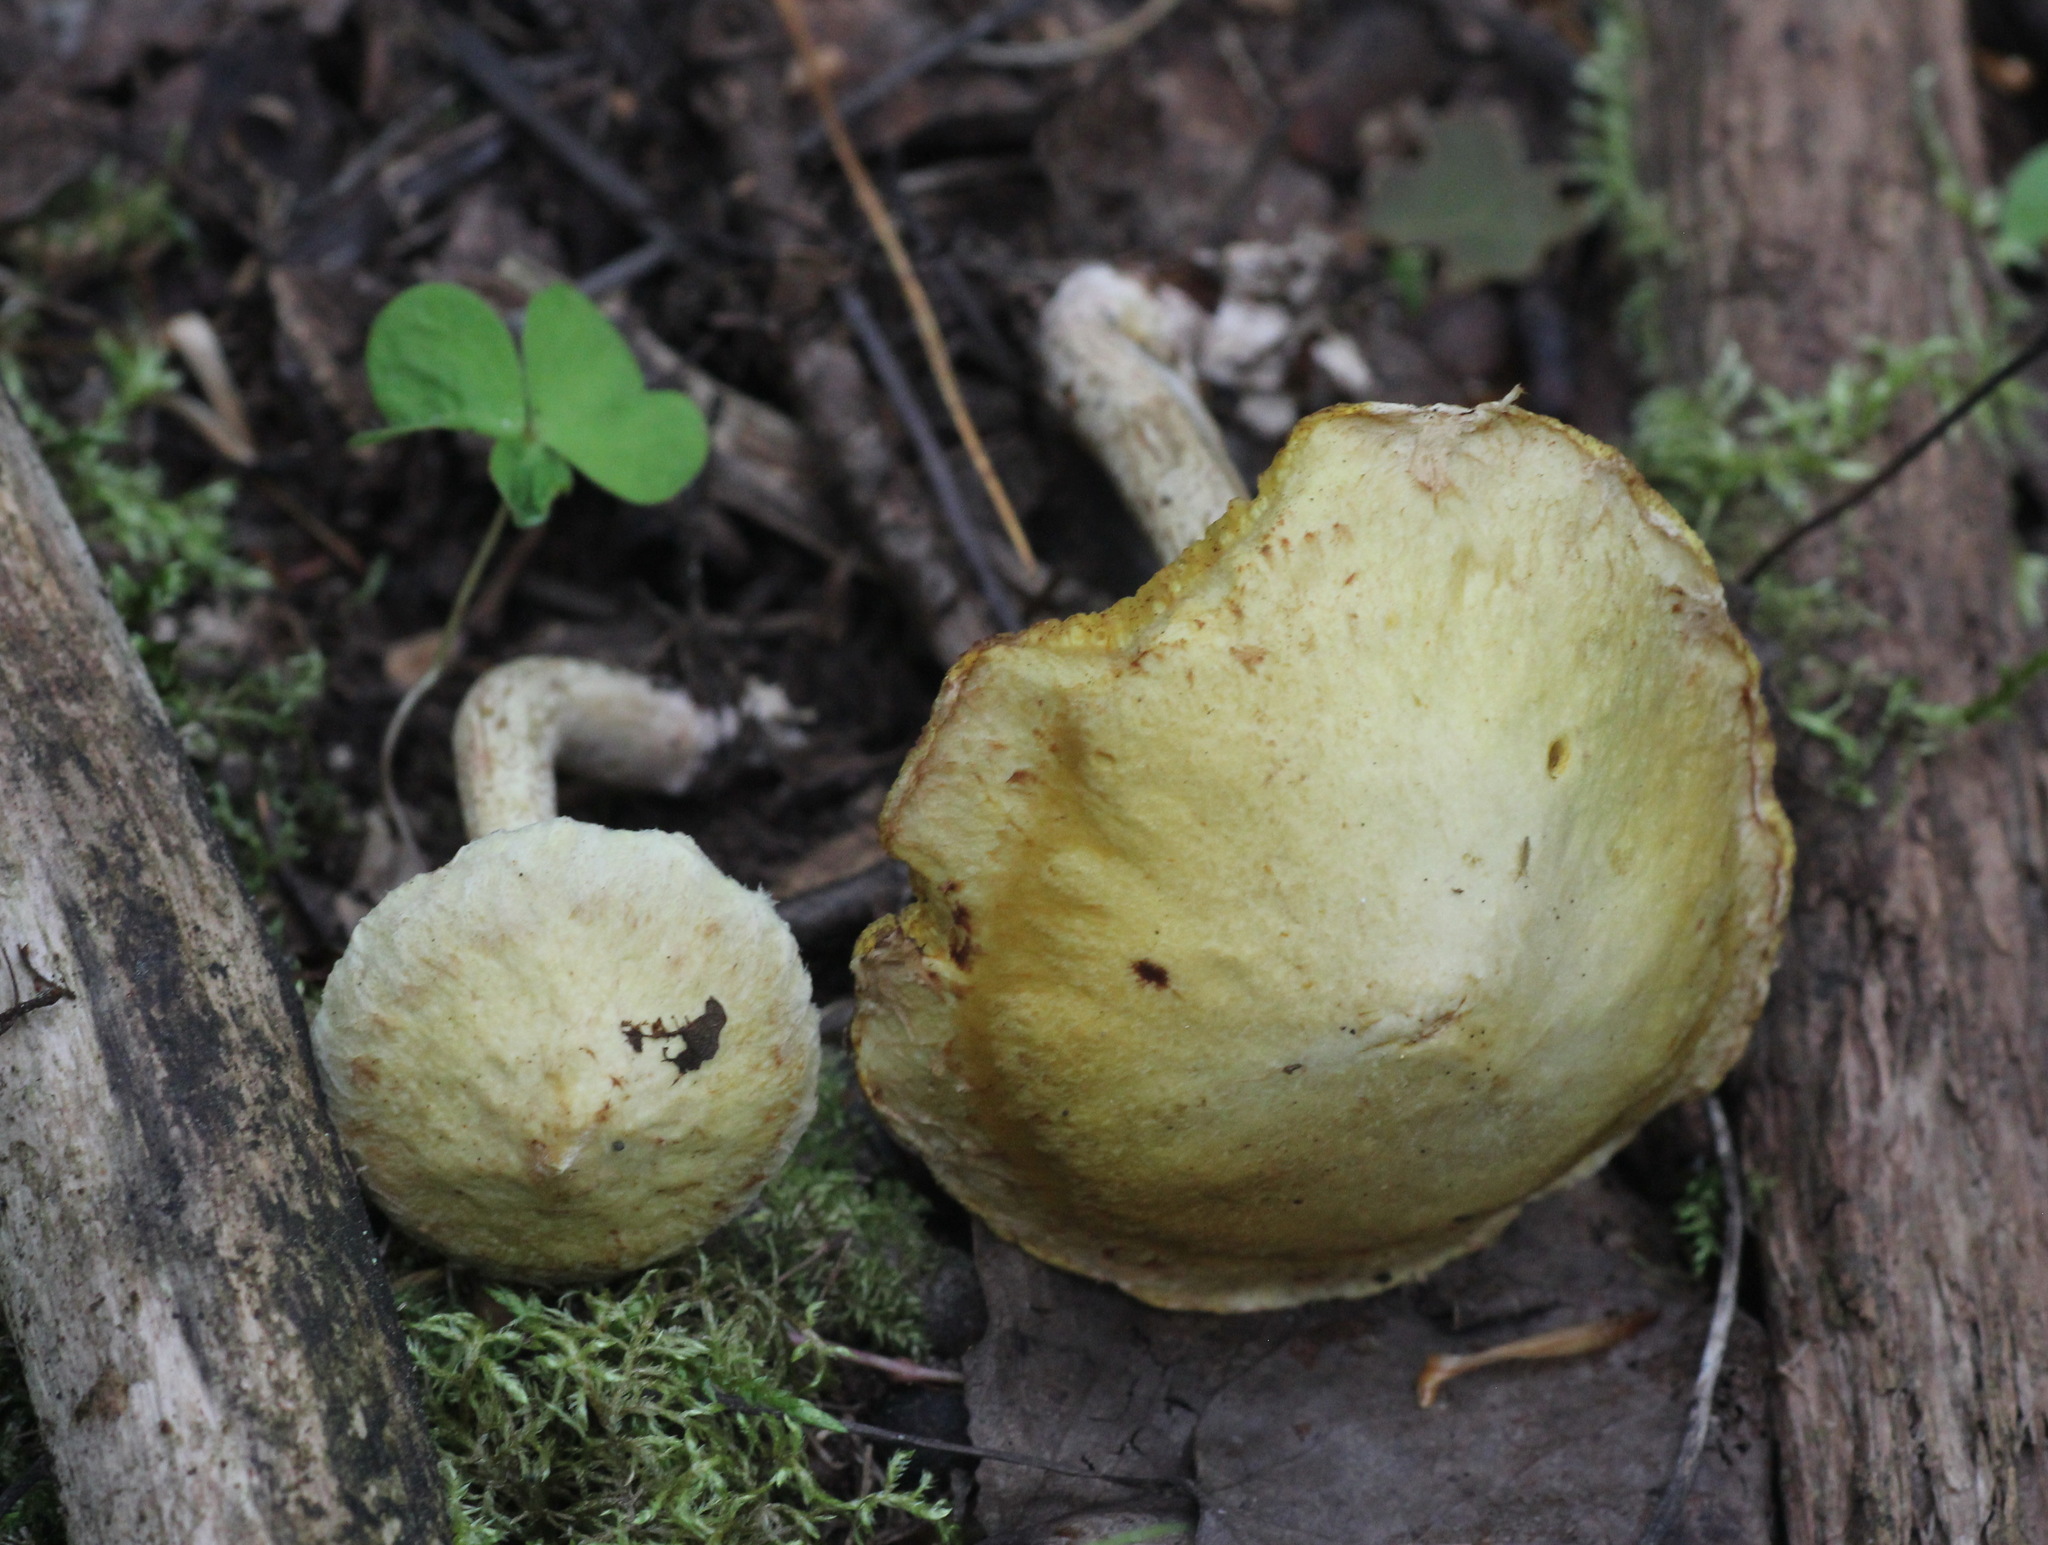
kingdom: Fungi
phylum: Basidiomycota
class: Agaricomycetes
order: Boletales
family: Suillaceae
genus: Suillus
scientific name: Suillus americanus
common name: Chicken fat mushroom
